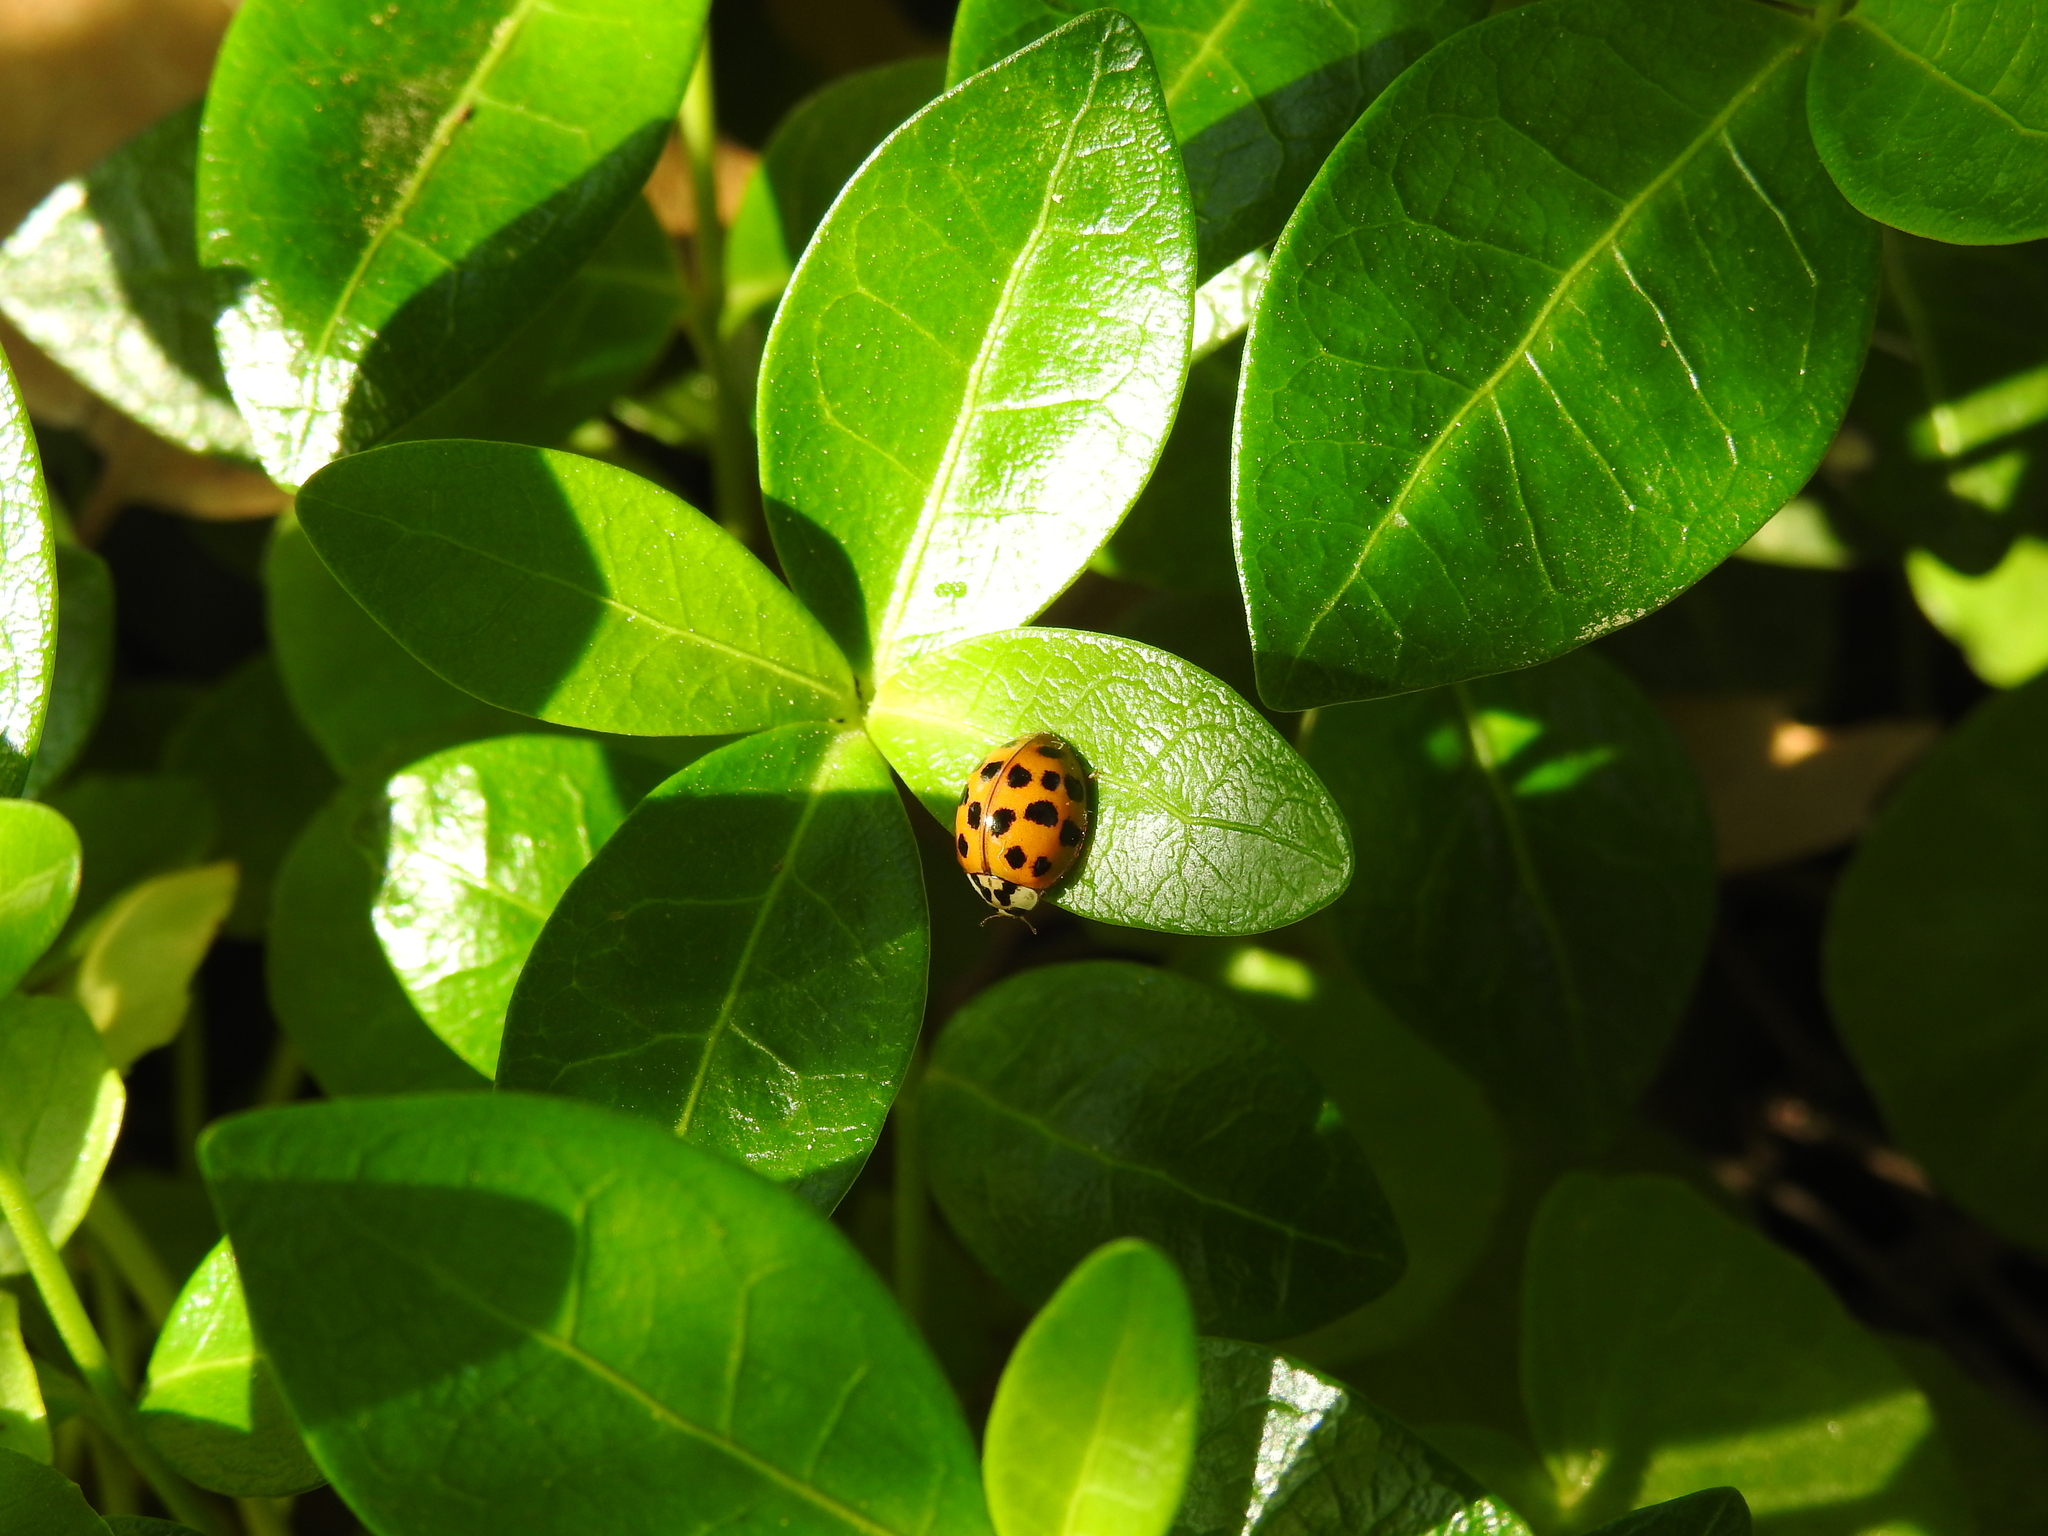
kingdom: Animalia
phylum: Arthropoda
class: Insecta
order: Coleoptera
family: Coccinellidae
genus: Harmonia
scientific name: Harmonia axyridis
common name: Harlequin ladybird
